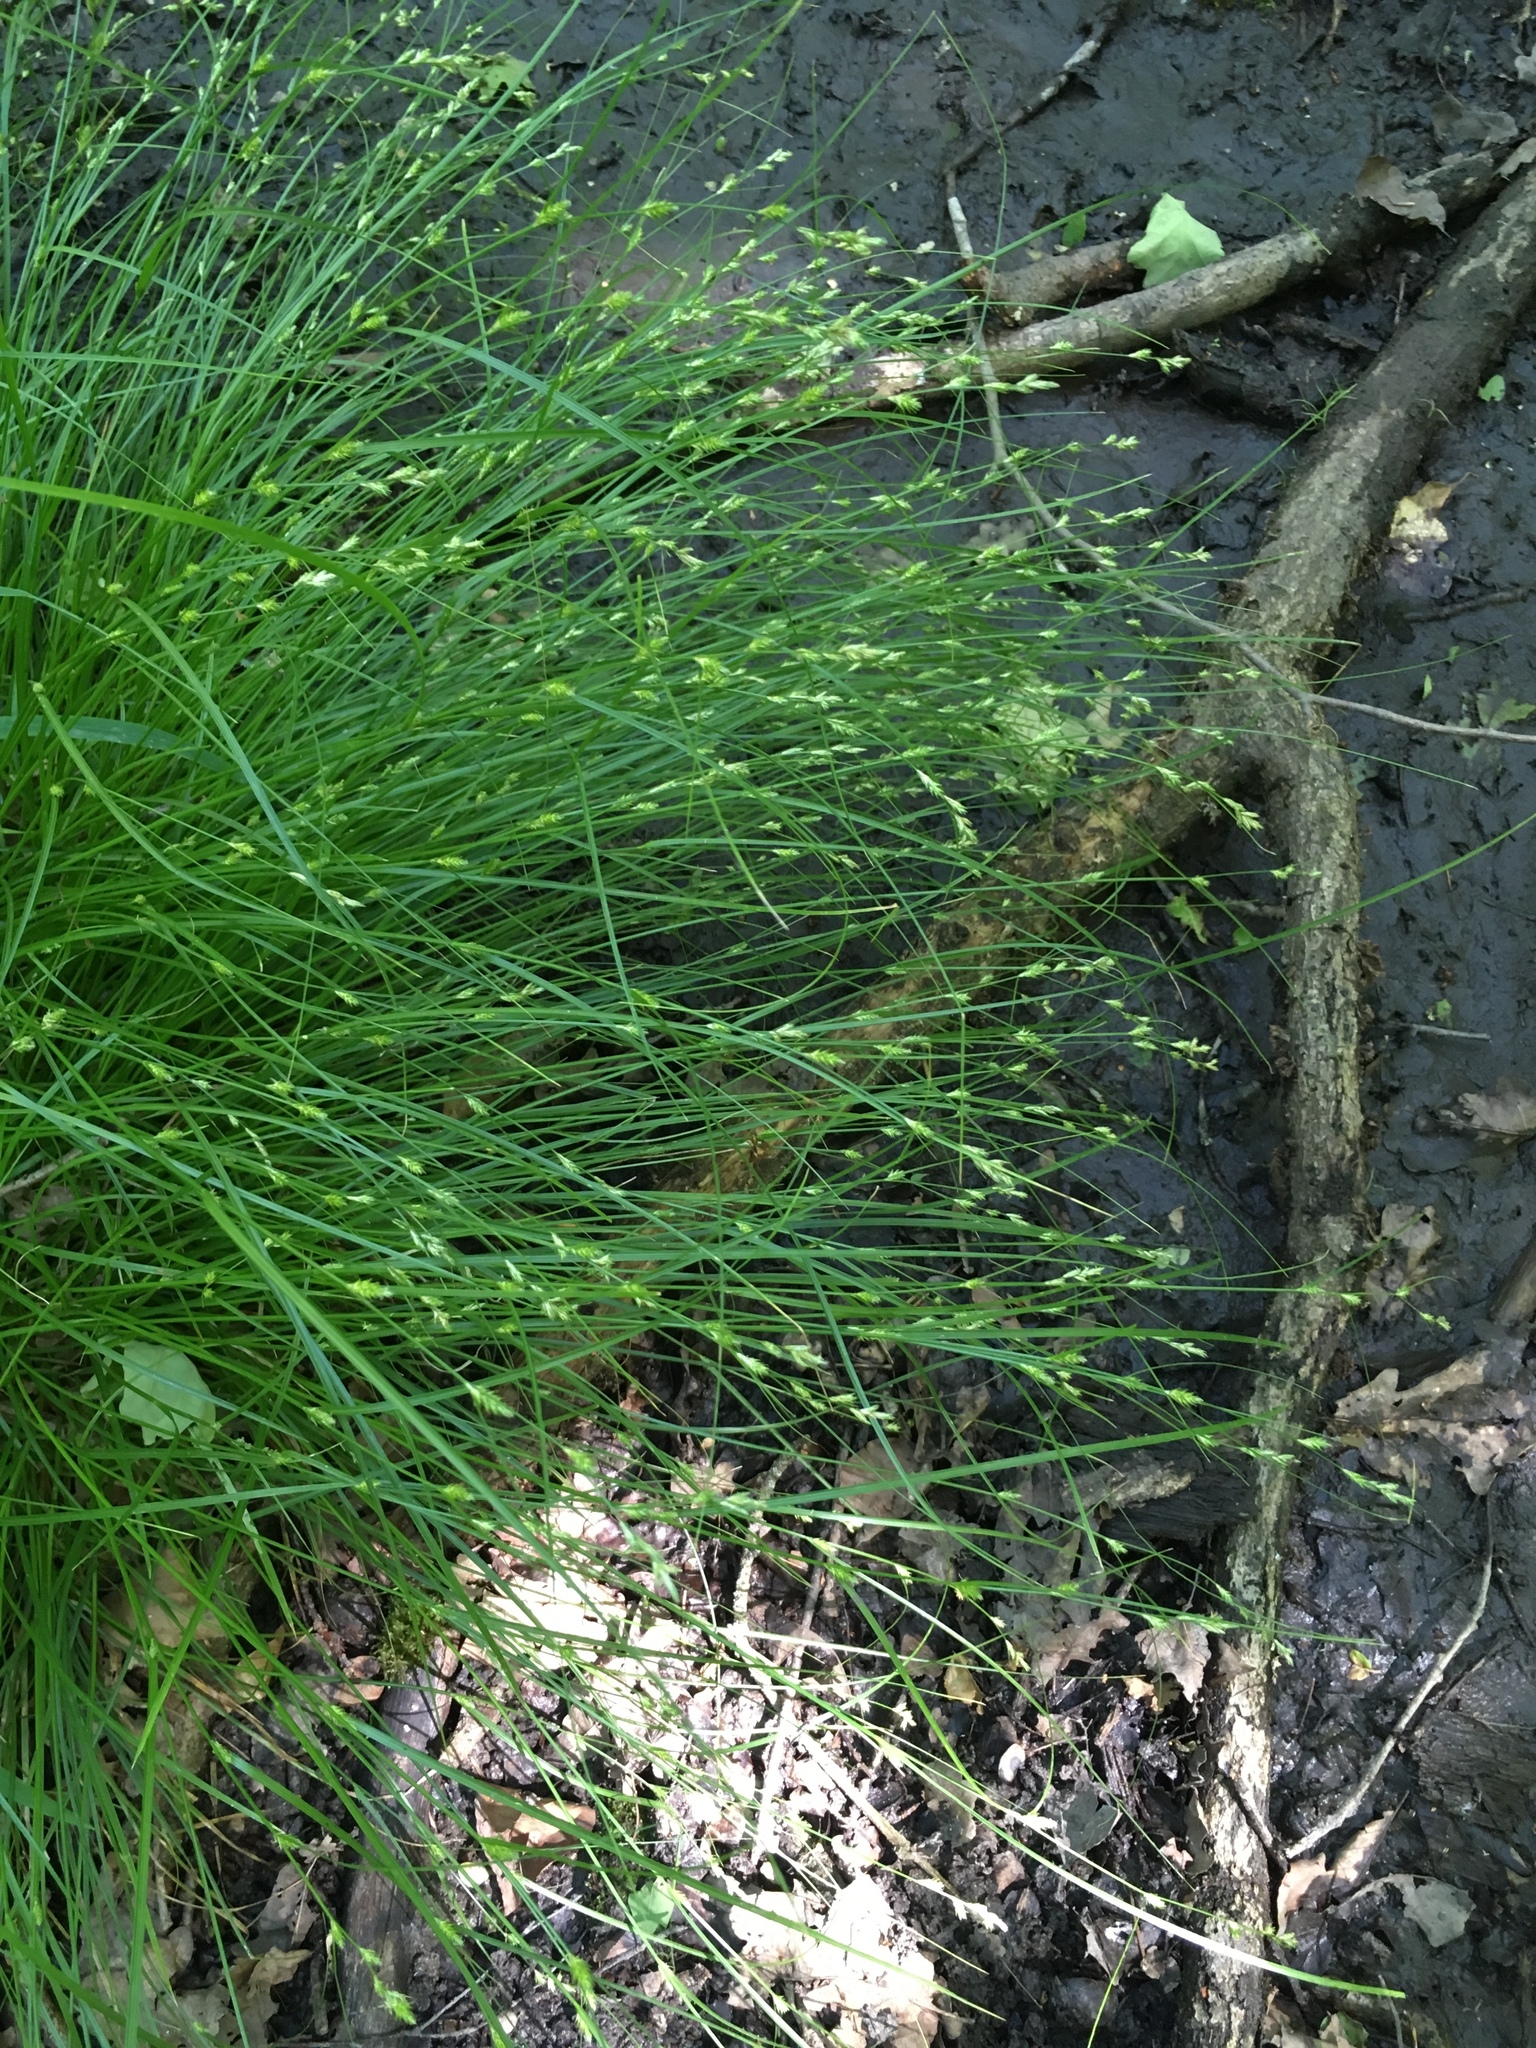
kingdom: Plantae
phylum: Tracheophyta
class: Liliopsida
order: Poales
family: Cyperaceae
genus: Carex
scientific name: Carex remota
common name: Remote sedge
